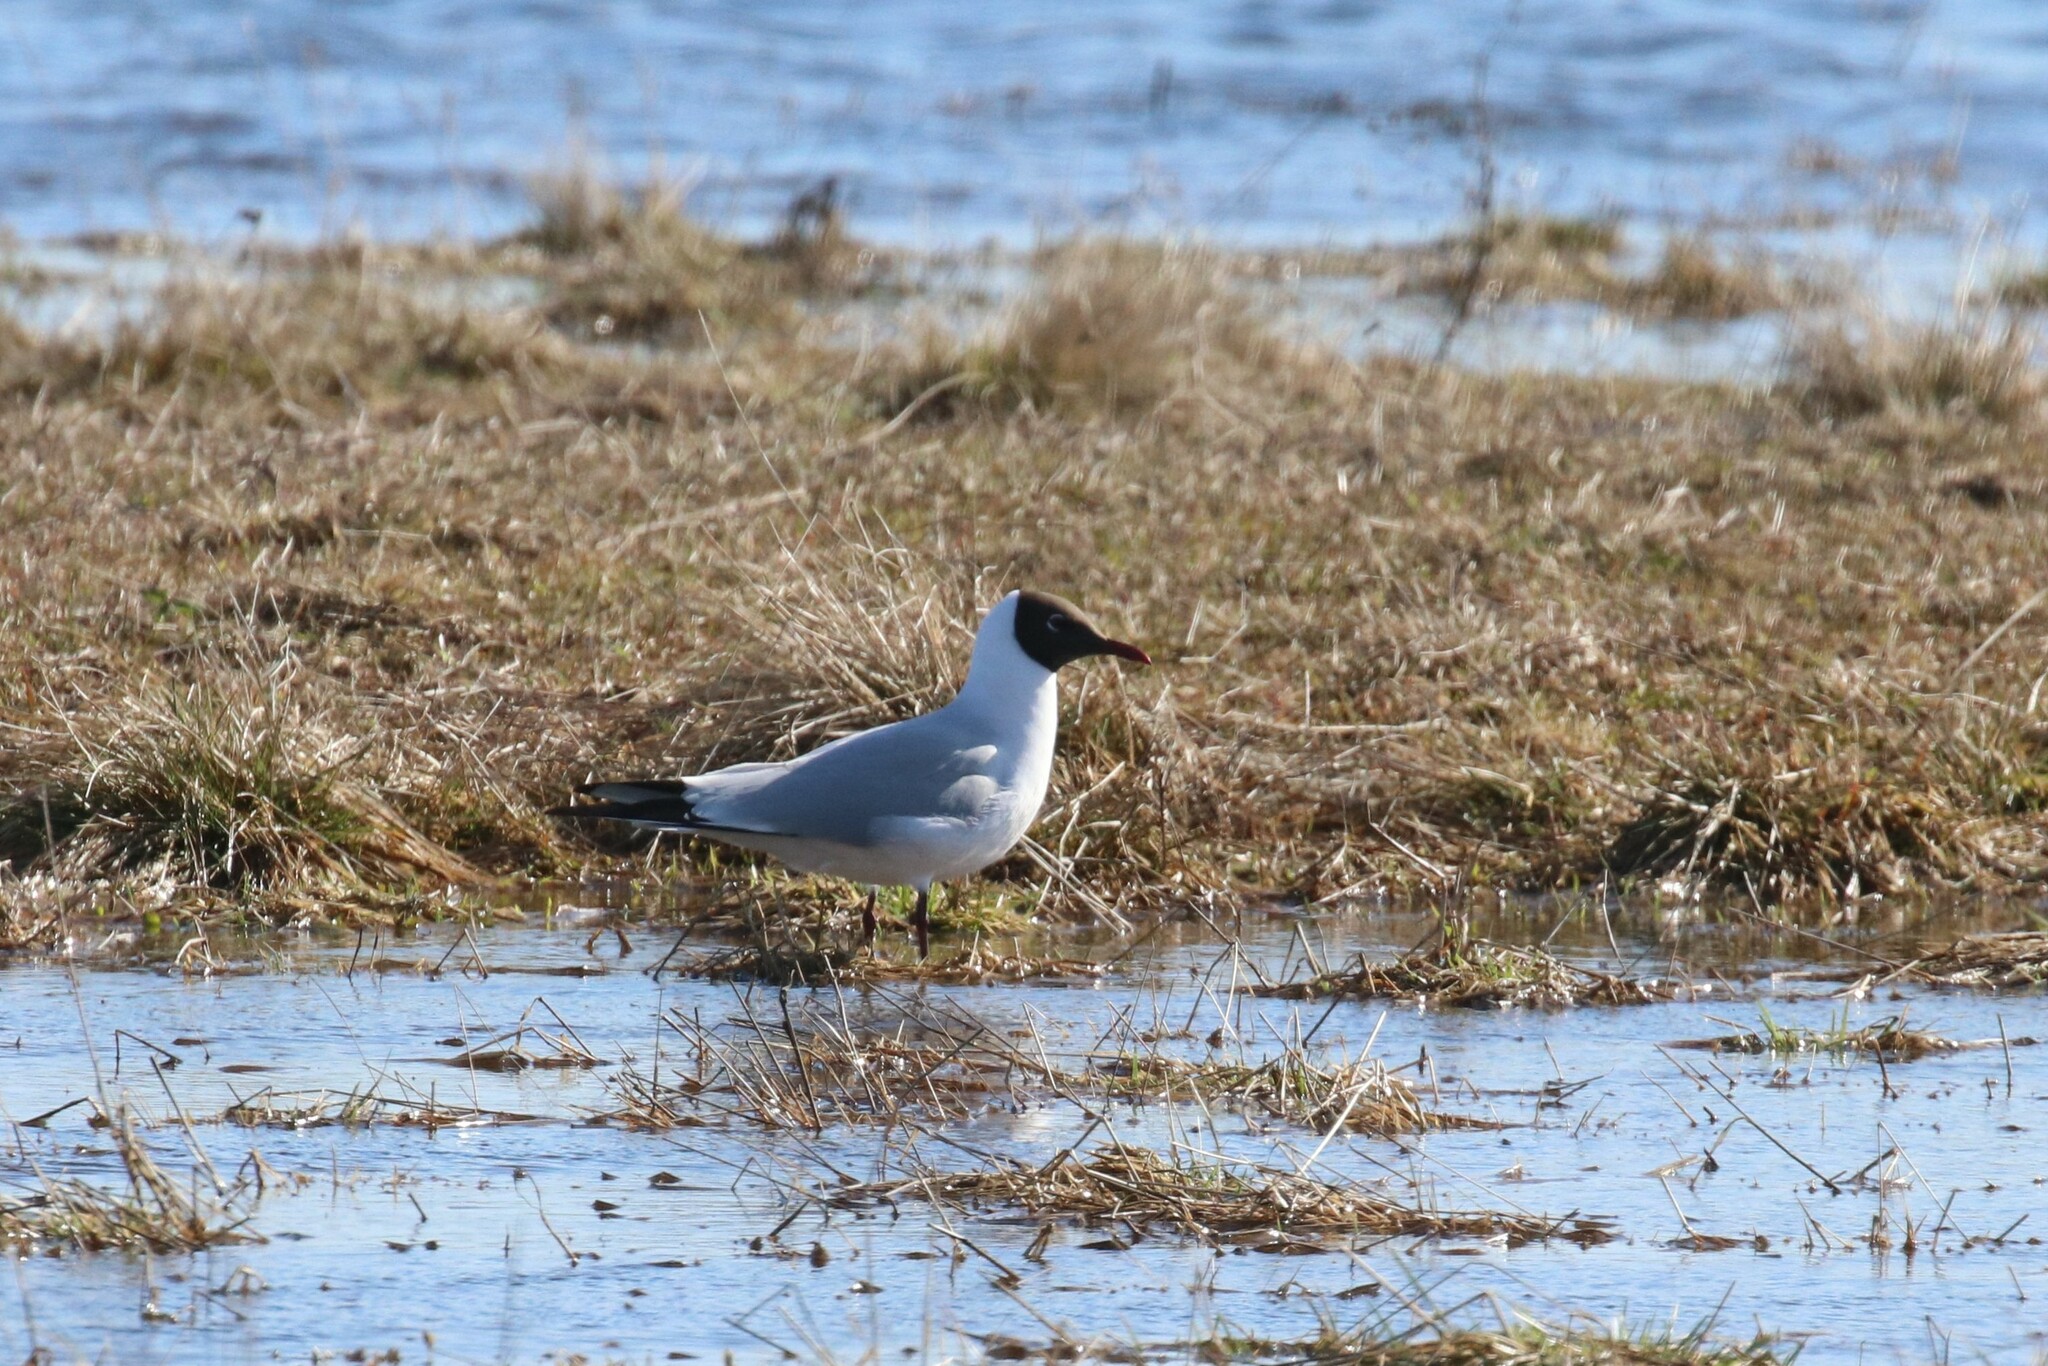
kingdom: Animalia
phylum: Chordata
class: Aves
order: Charadriiformes
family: Laridae
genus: Chroicocephalus
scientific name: Chroicocephalus ridibundus
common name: Black-headed gull
